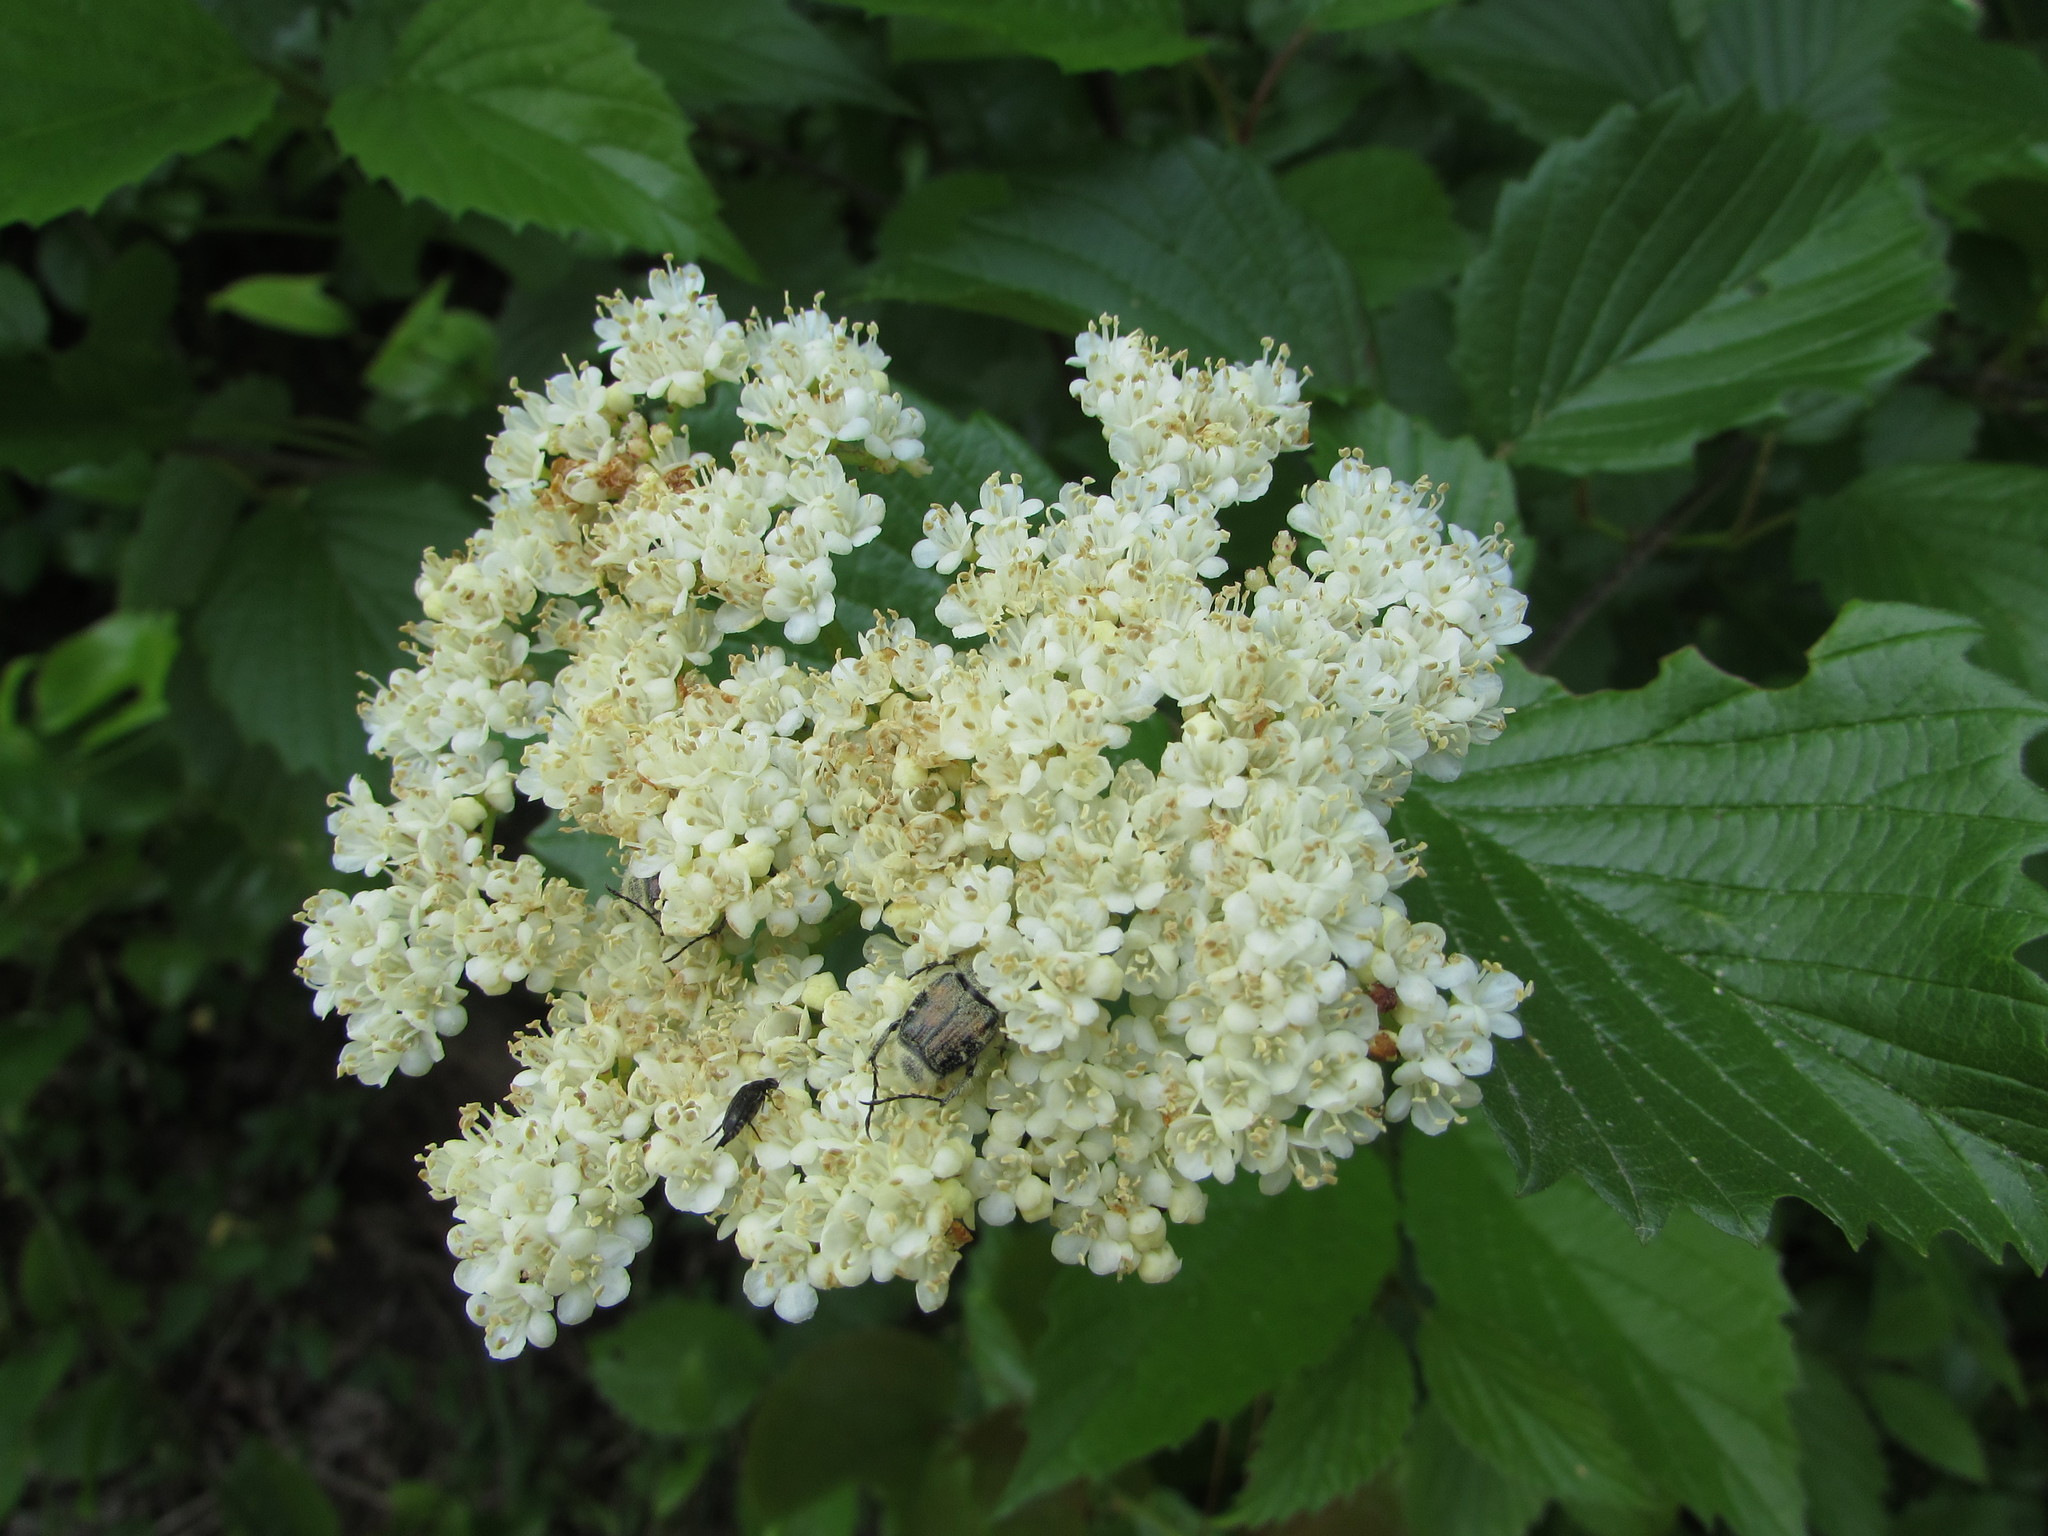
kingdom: Plantae
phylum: Tracheophyta
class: Magnoliopsida
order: Dipsacales
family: Viburnaceae
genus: Viburnum
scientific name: Viburnum dentatum
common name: Arrow-wood
